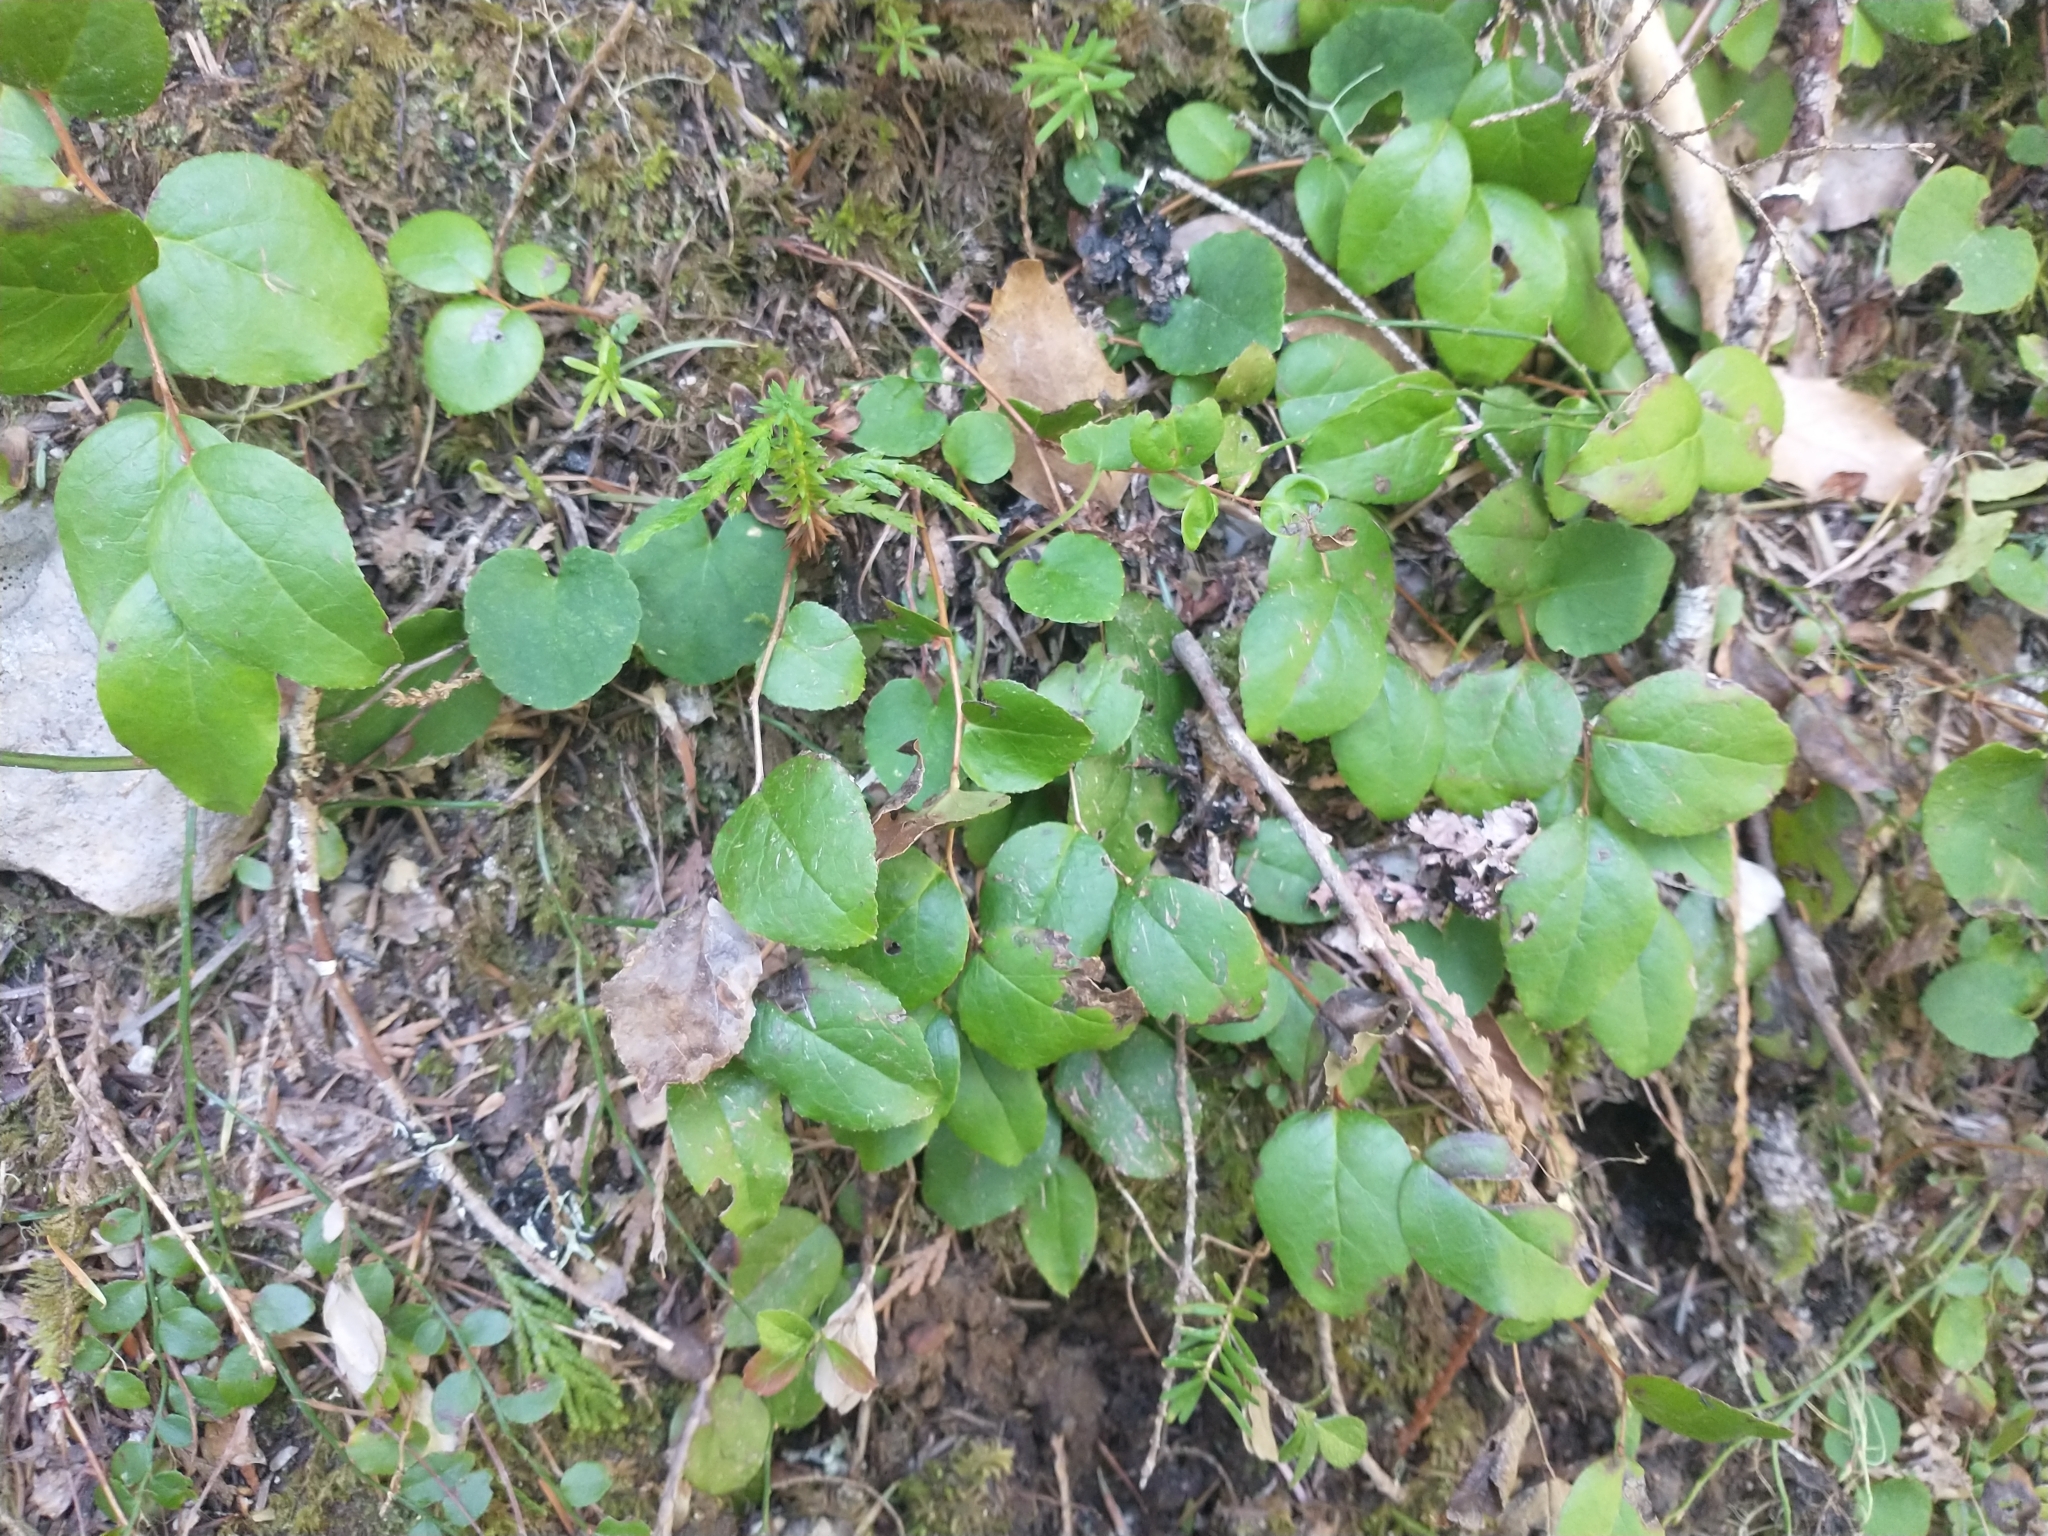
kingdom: Plantae
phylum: Tracheophyta
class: Magnoliopsida
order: Ericales
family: Ericaceae
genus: Gaultheria
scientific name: Gaultheria ovatifolia
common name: Oregon wintergreen
